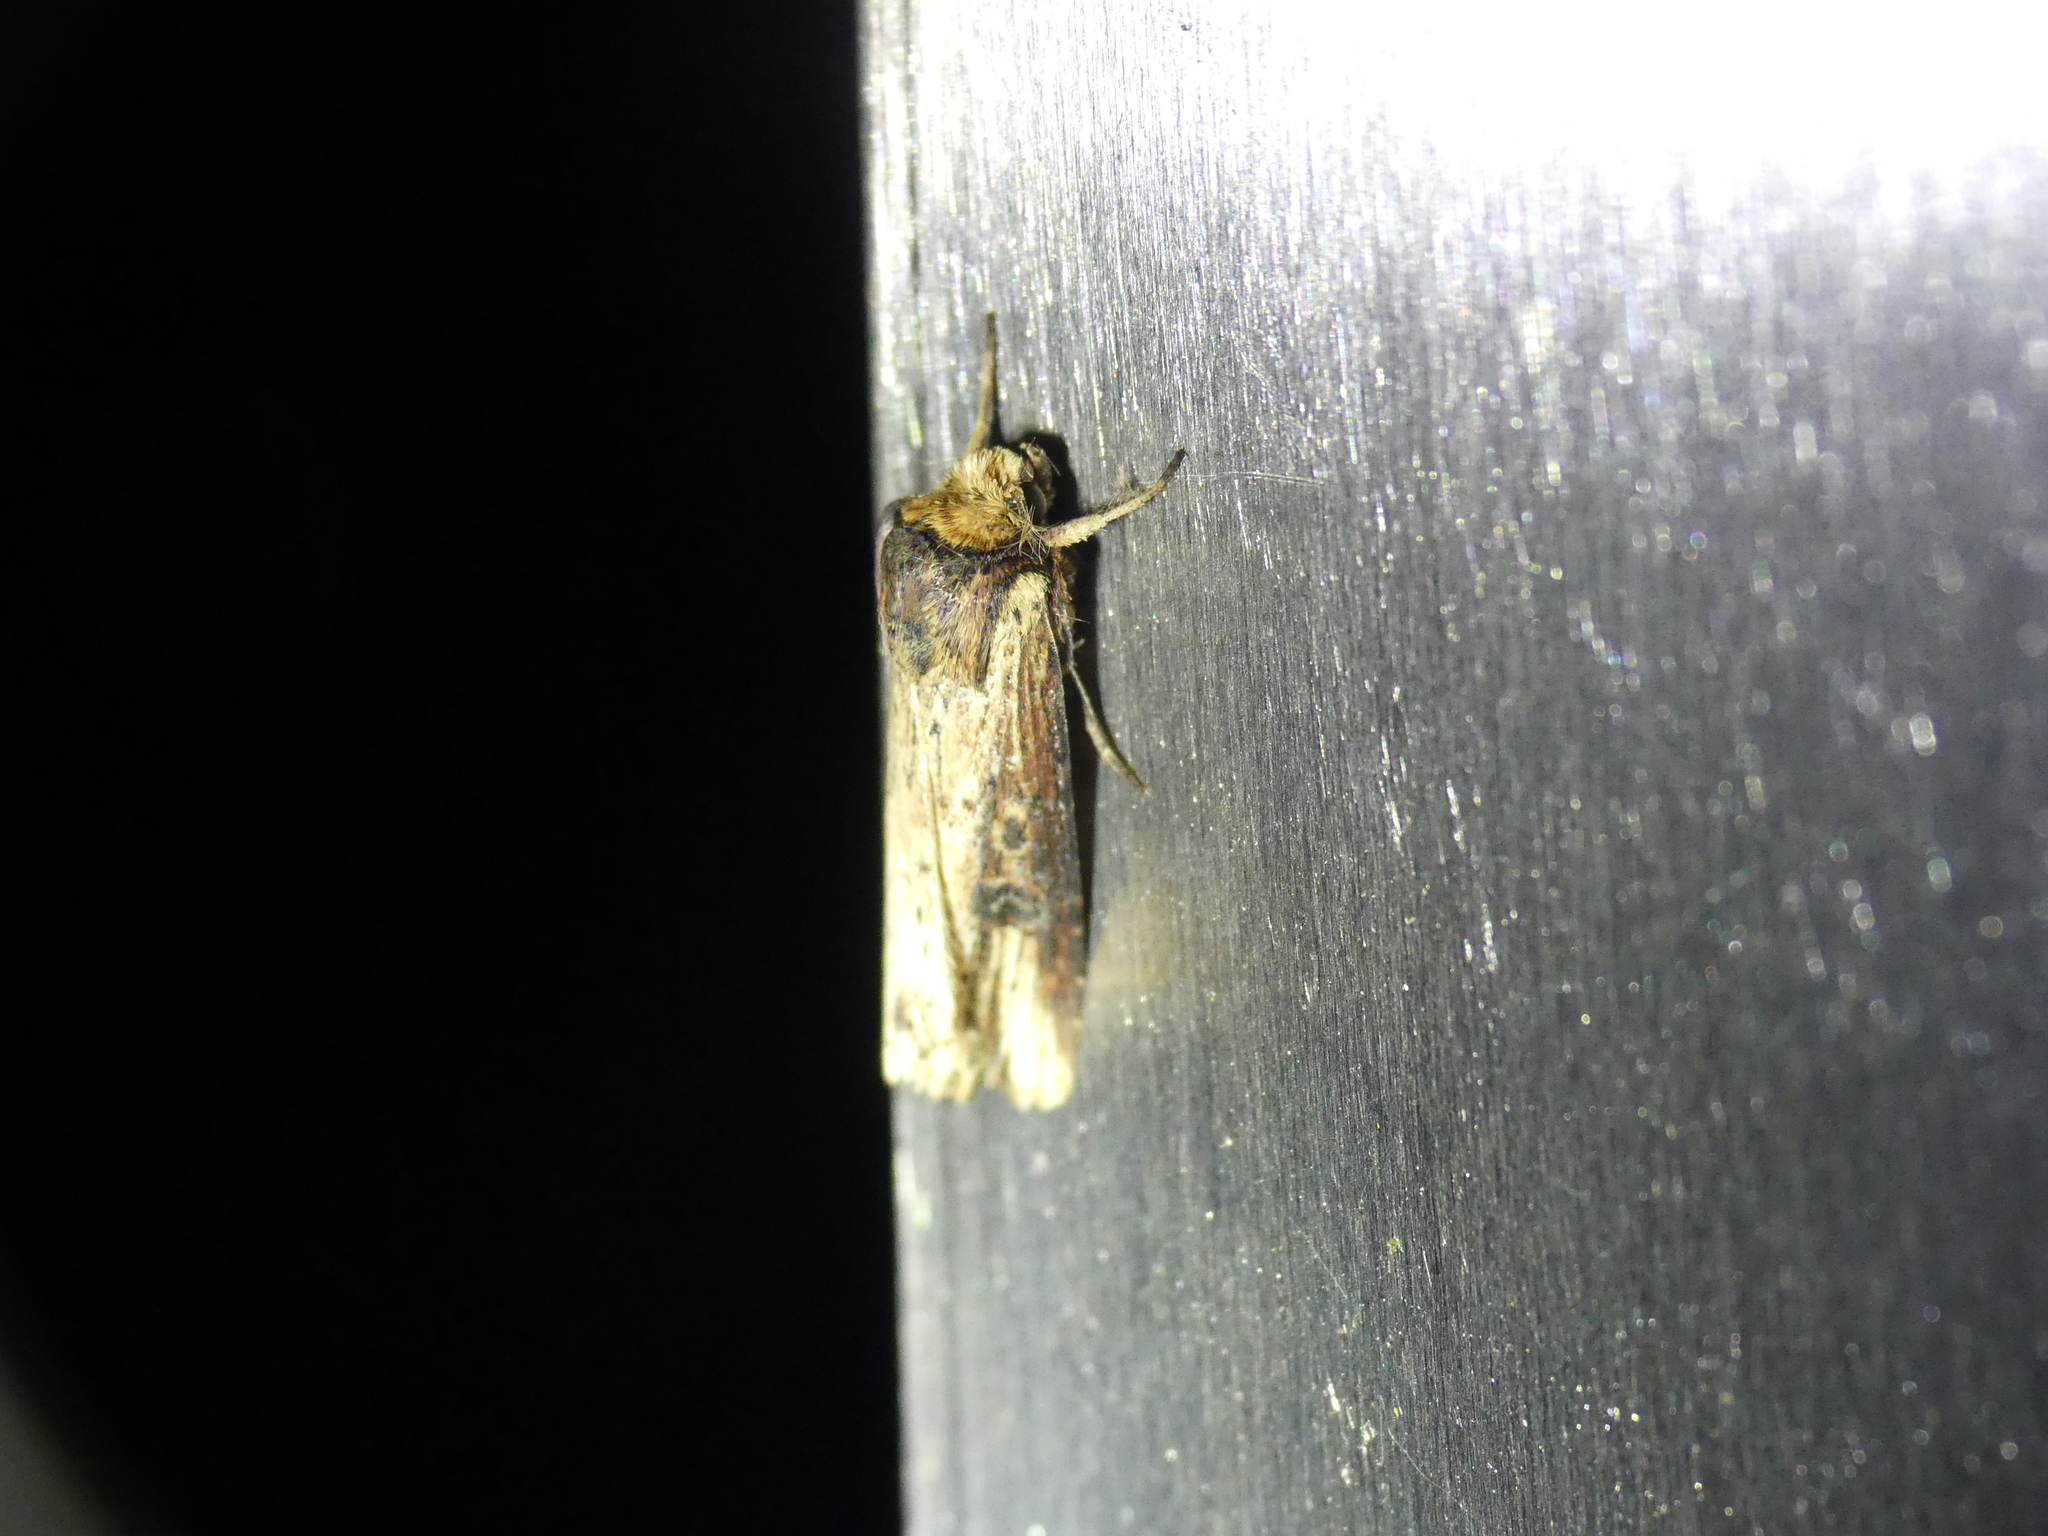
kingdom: Animalia
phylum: Arthropoda
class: Insecta
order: Lepidoptera
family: Noctuidae
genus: Axylia
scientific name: Axylia putris
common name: Flame
